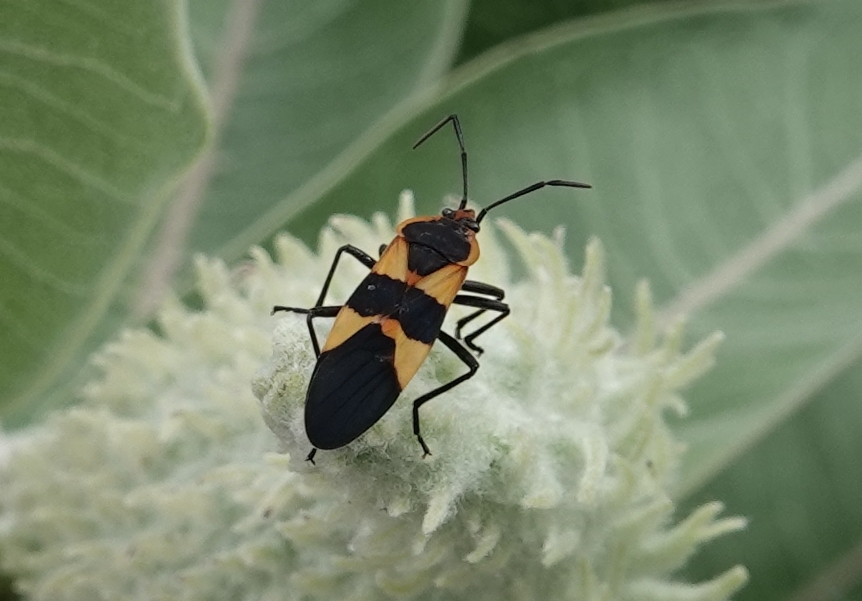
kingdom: Animalia
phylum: Arthropoda
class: Insecta
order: Hemiptera
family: Lygaeidae
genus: Oncopeltus
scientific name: Oncopeltus fasciatus
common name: Large milkweed bug
